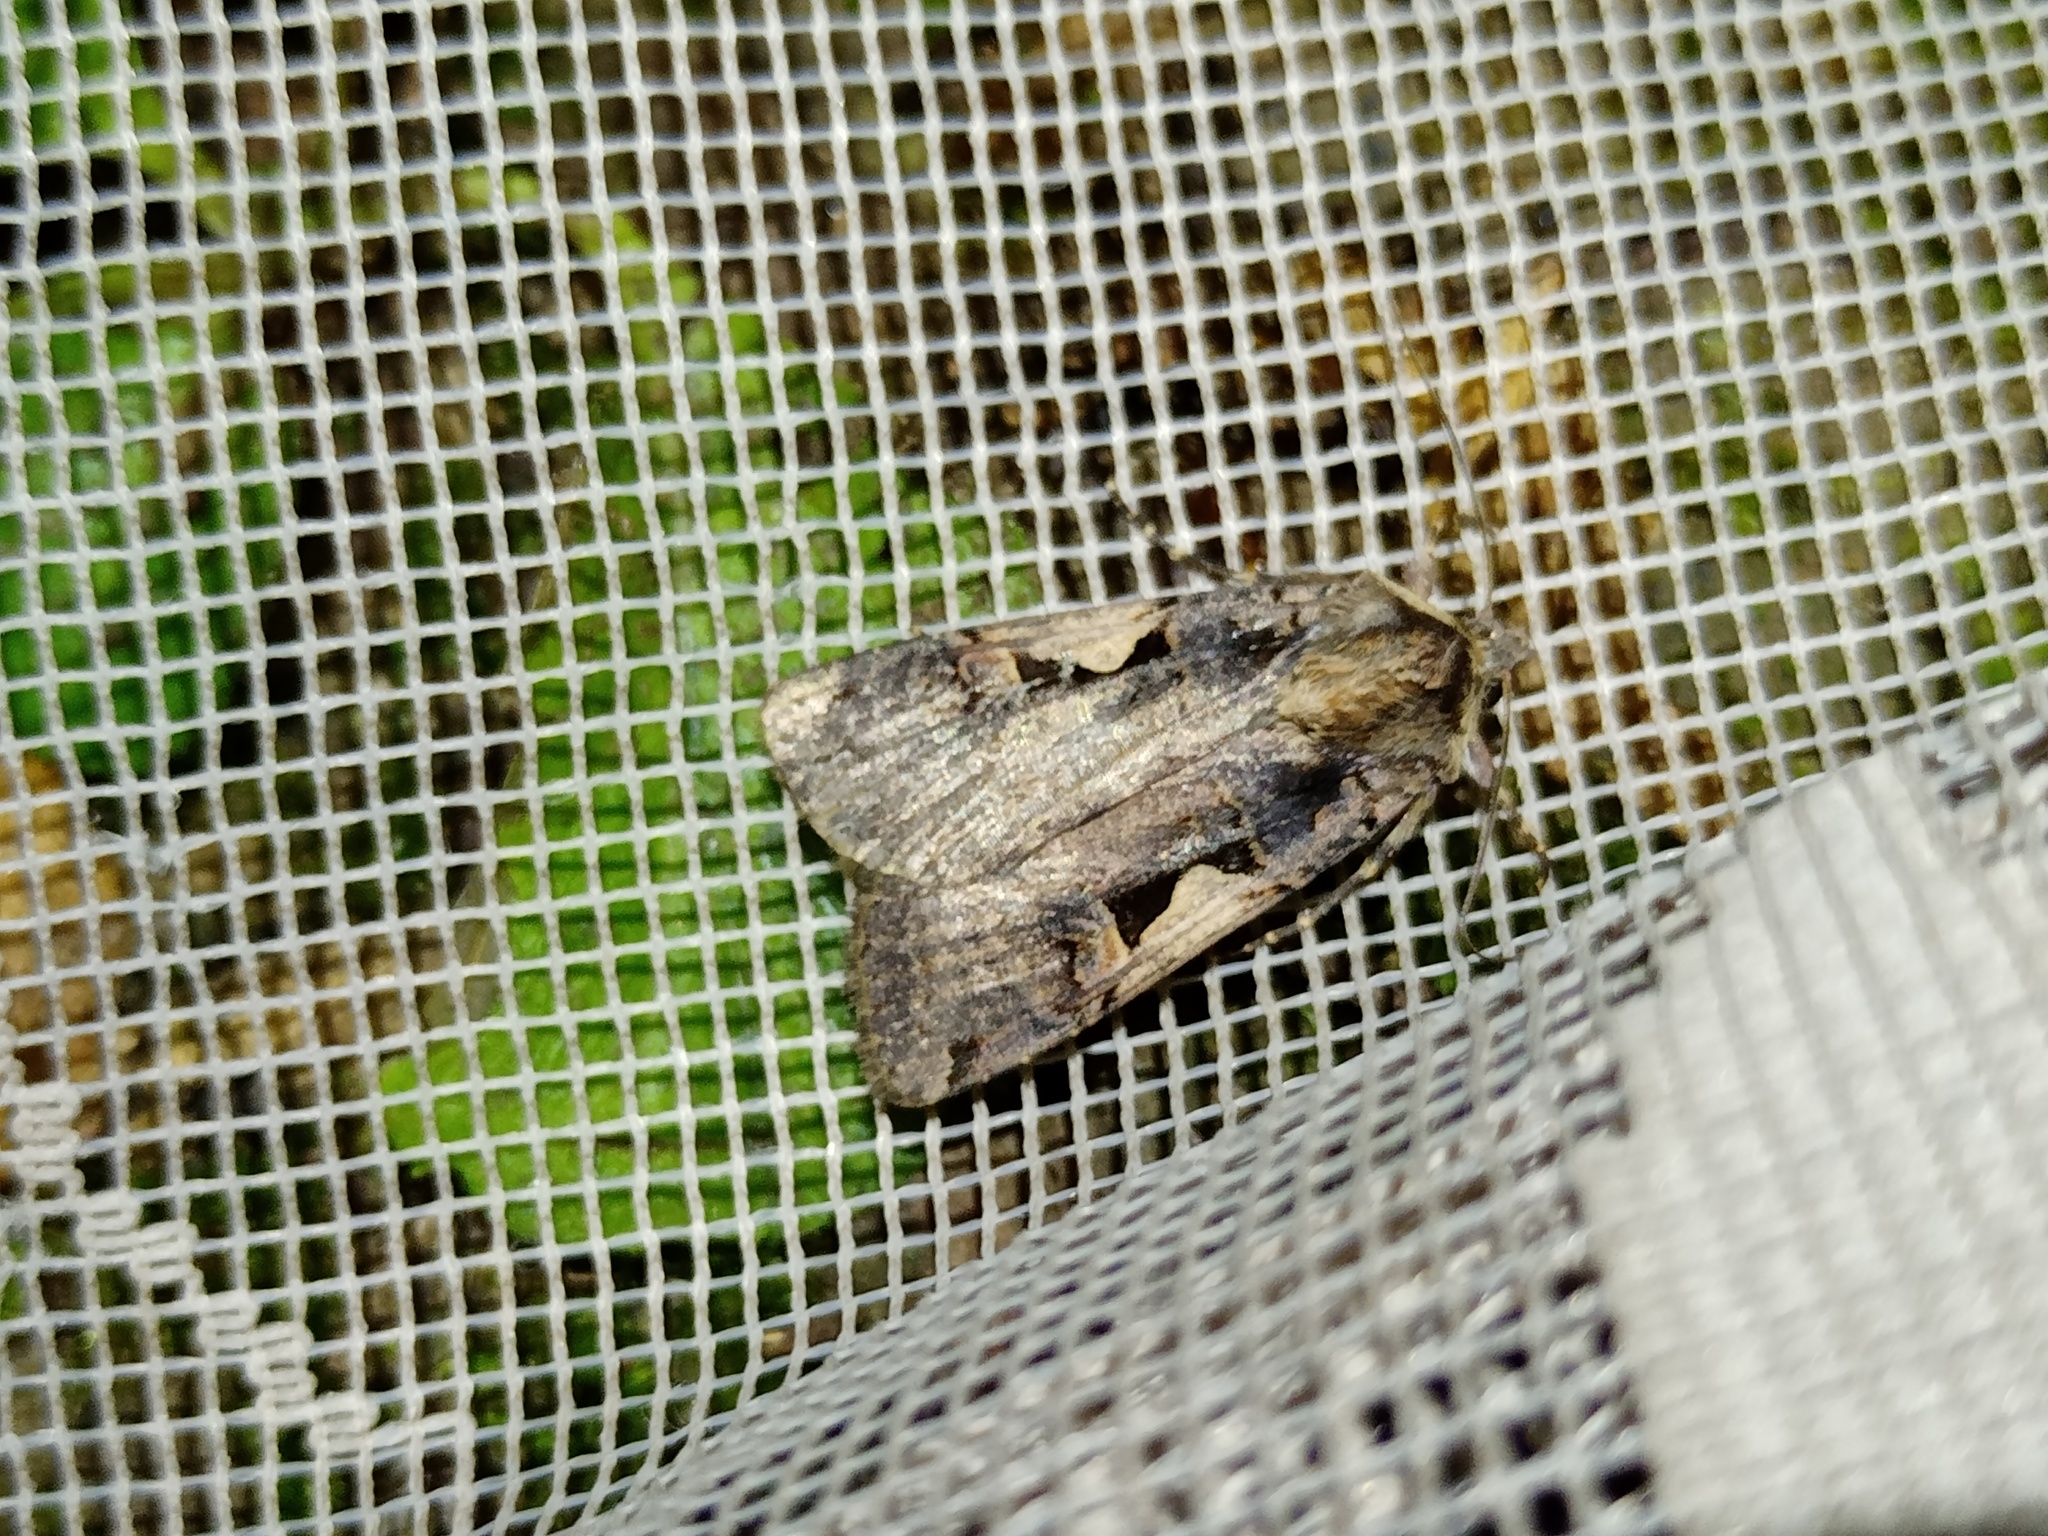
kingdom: Animalia
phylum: Arthropoda
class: Insecta
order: Lepidoptera
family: Noctuidae
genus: Xestia
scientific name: Xestia c-nigrum
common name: Setaceous hebrew character
